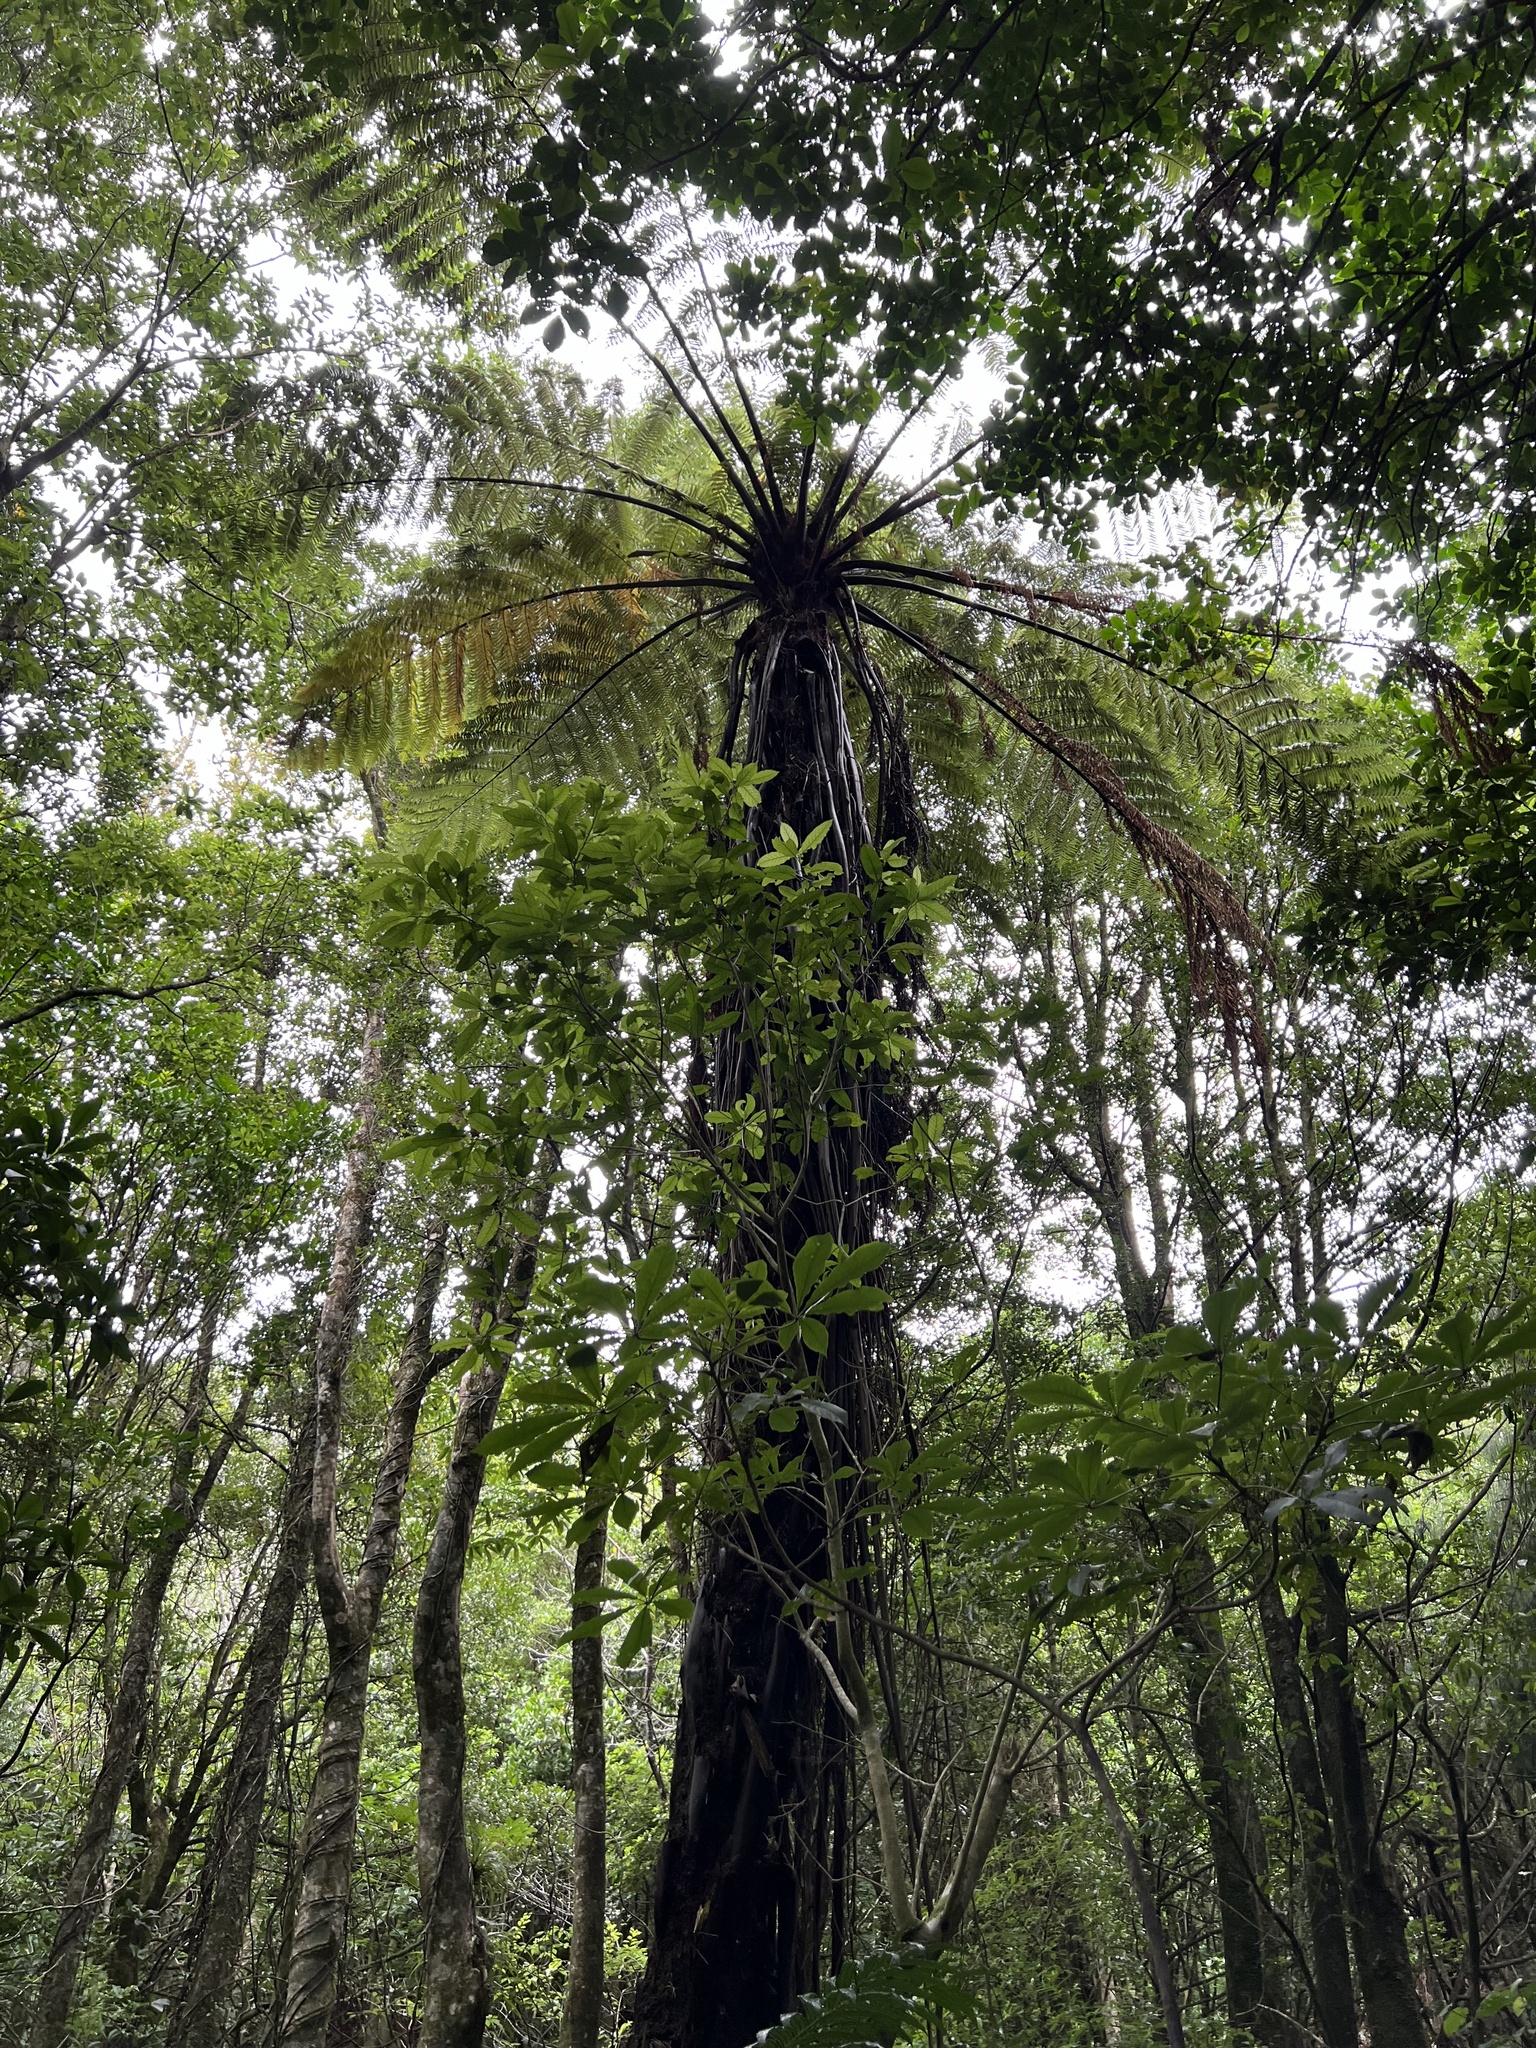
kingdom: Plantae
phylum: Tracheophyta
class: Polypodiopsida
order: Cyatheales
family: Cyatheaceae
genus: Sphaeropteris
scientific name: Sphaeropteris medullaris
